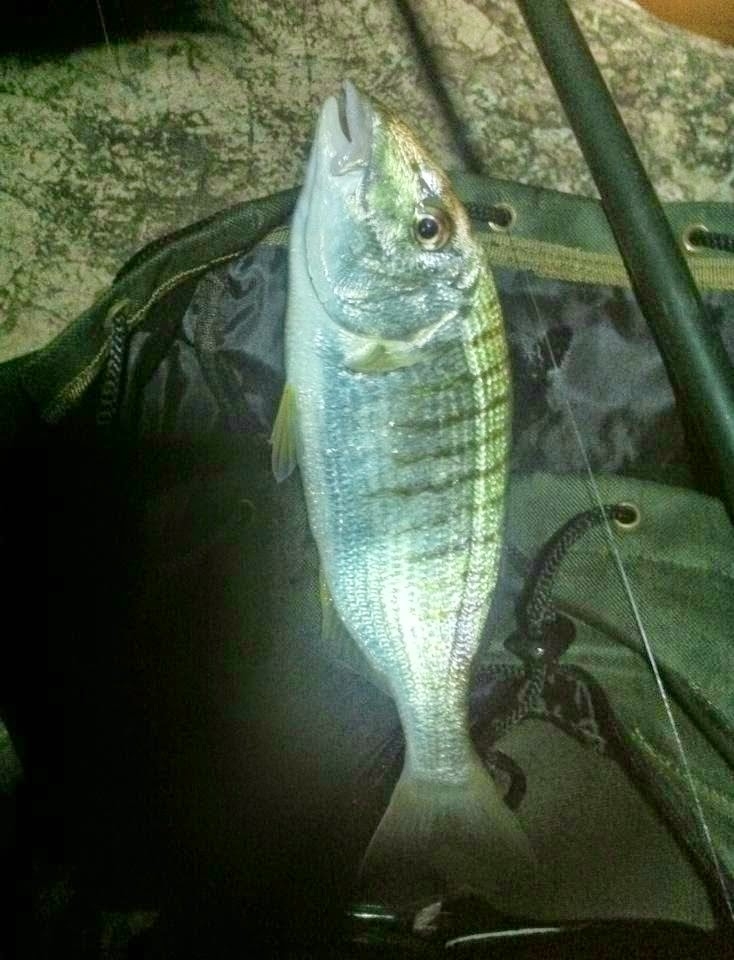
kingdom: Animalia
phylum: Chordata
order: Perciformes
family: Sparidae
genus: Lithognathus
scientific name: Lithognathus mormyrus
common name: Sand steenbras
